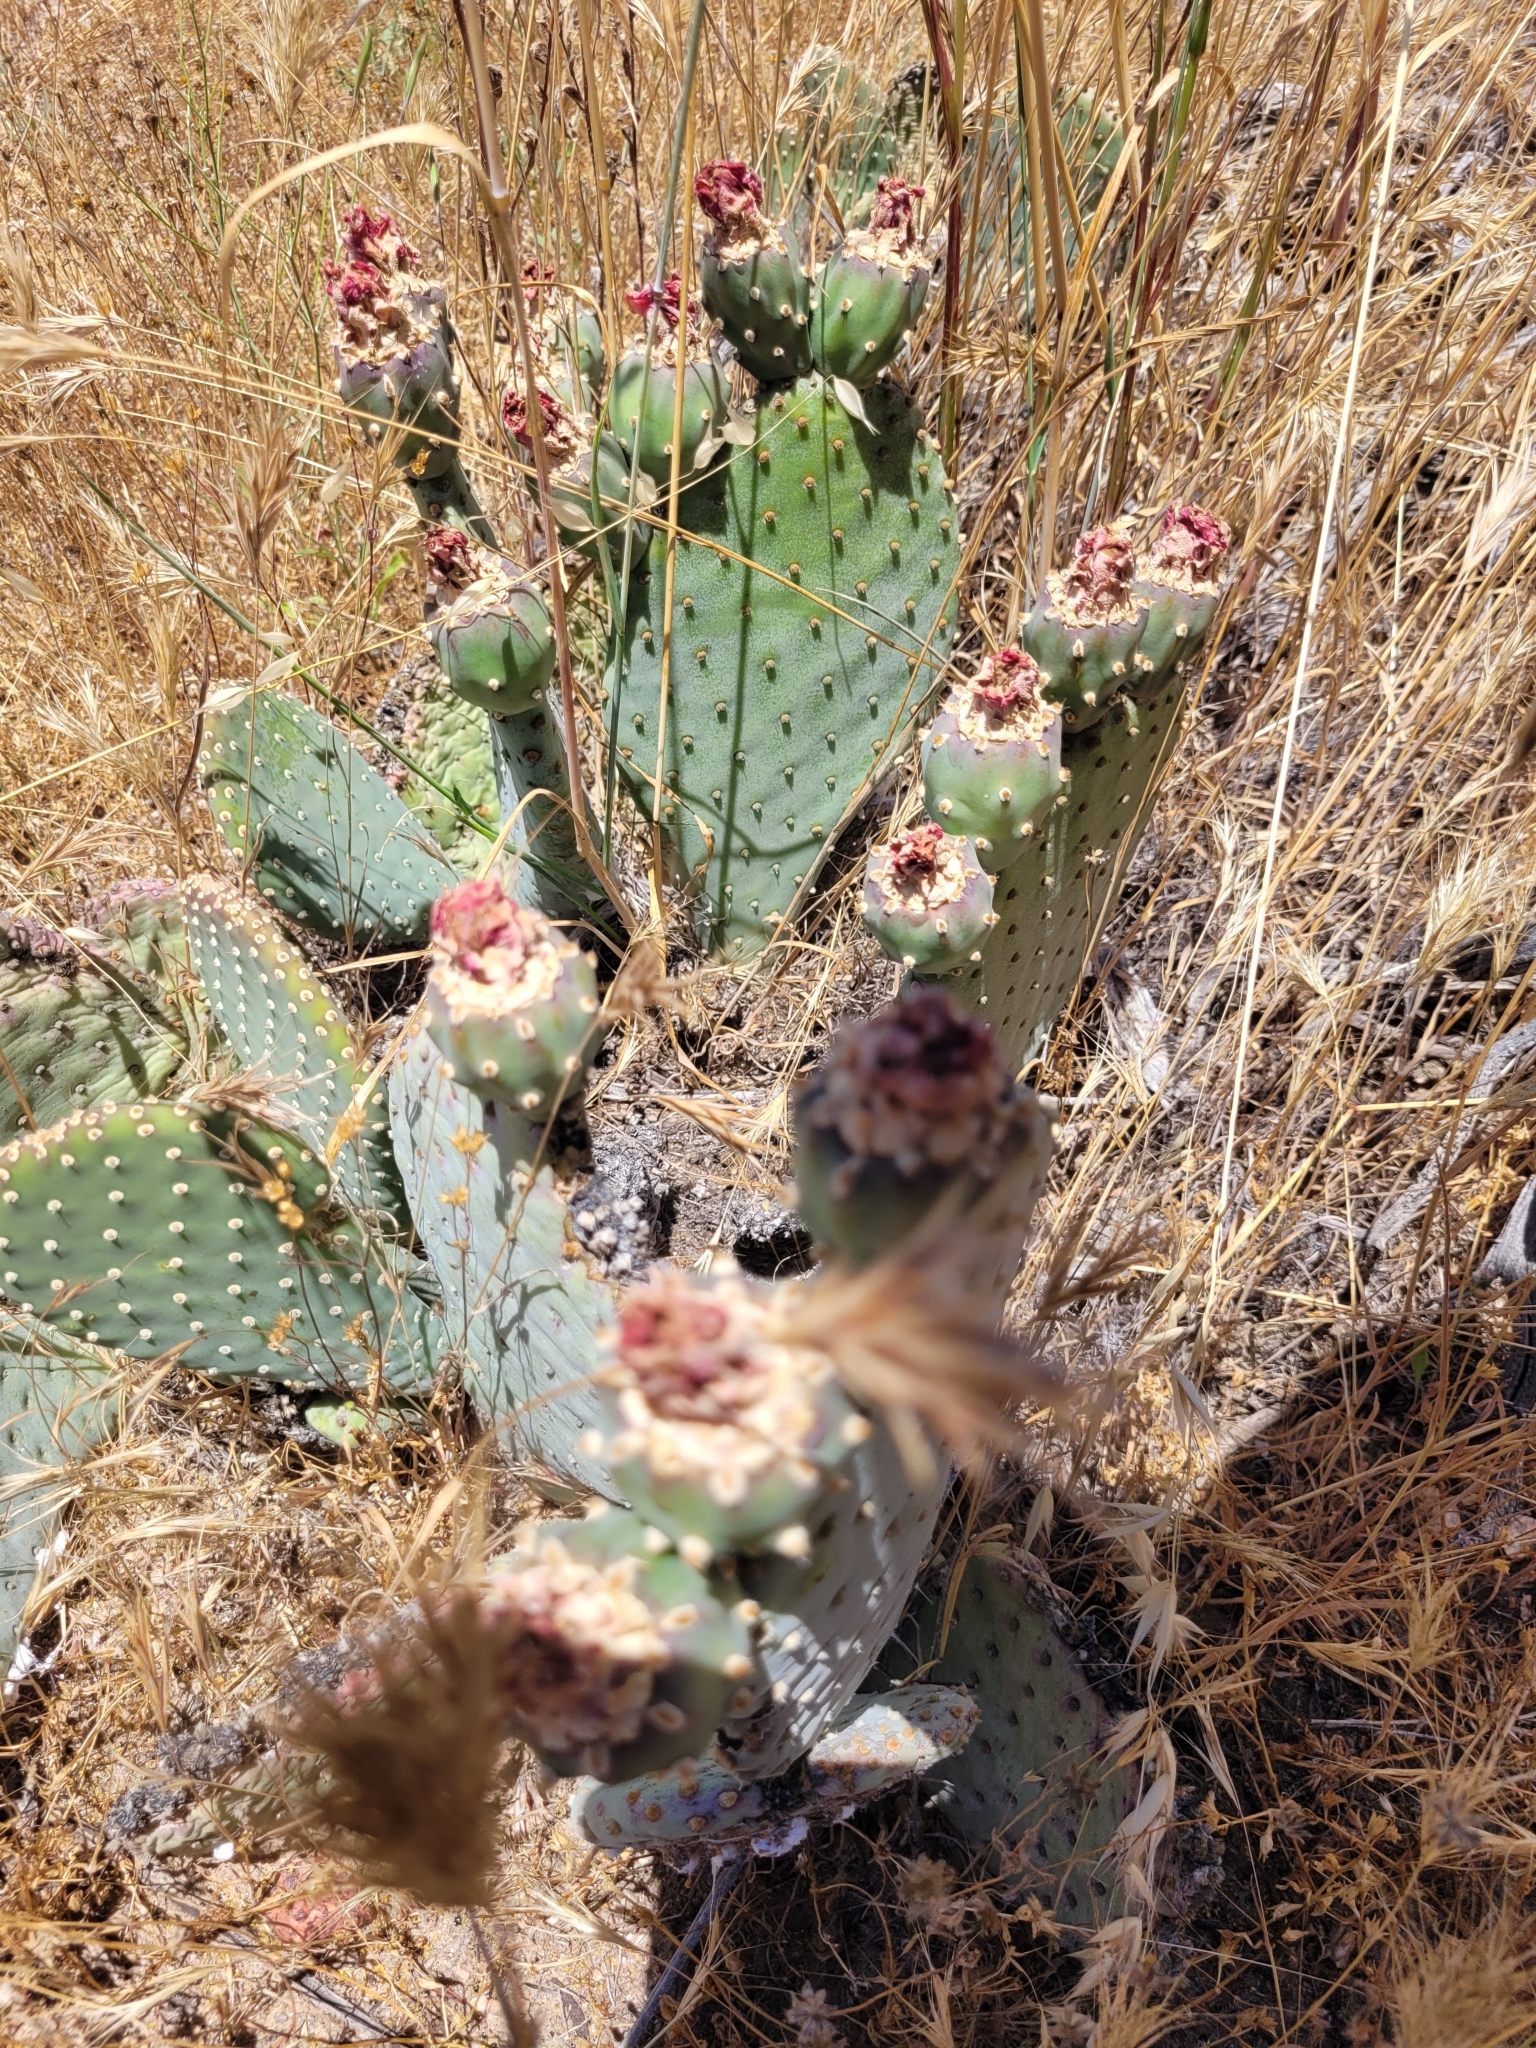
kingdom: Plantae
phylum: Tracheophyta
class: Magnoliopsida
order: Caryophyllales
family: Cactaceae
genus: Opuntia
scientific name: Opuntia basilaris
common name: Beavertail prickly-pear
